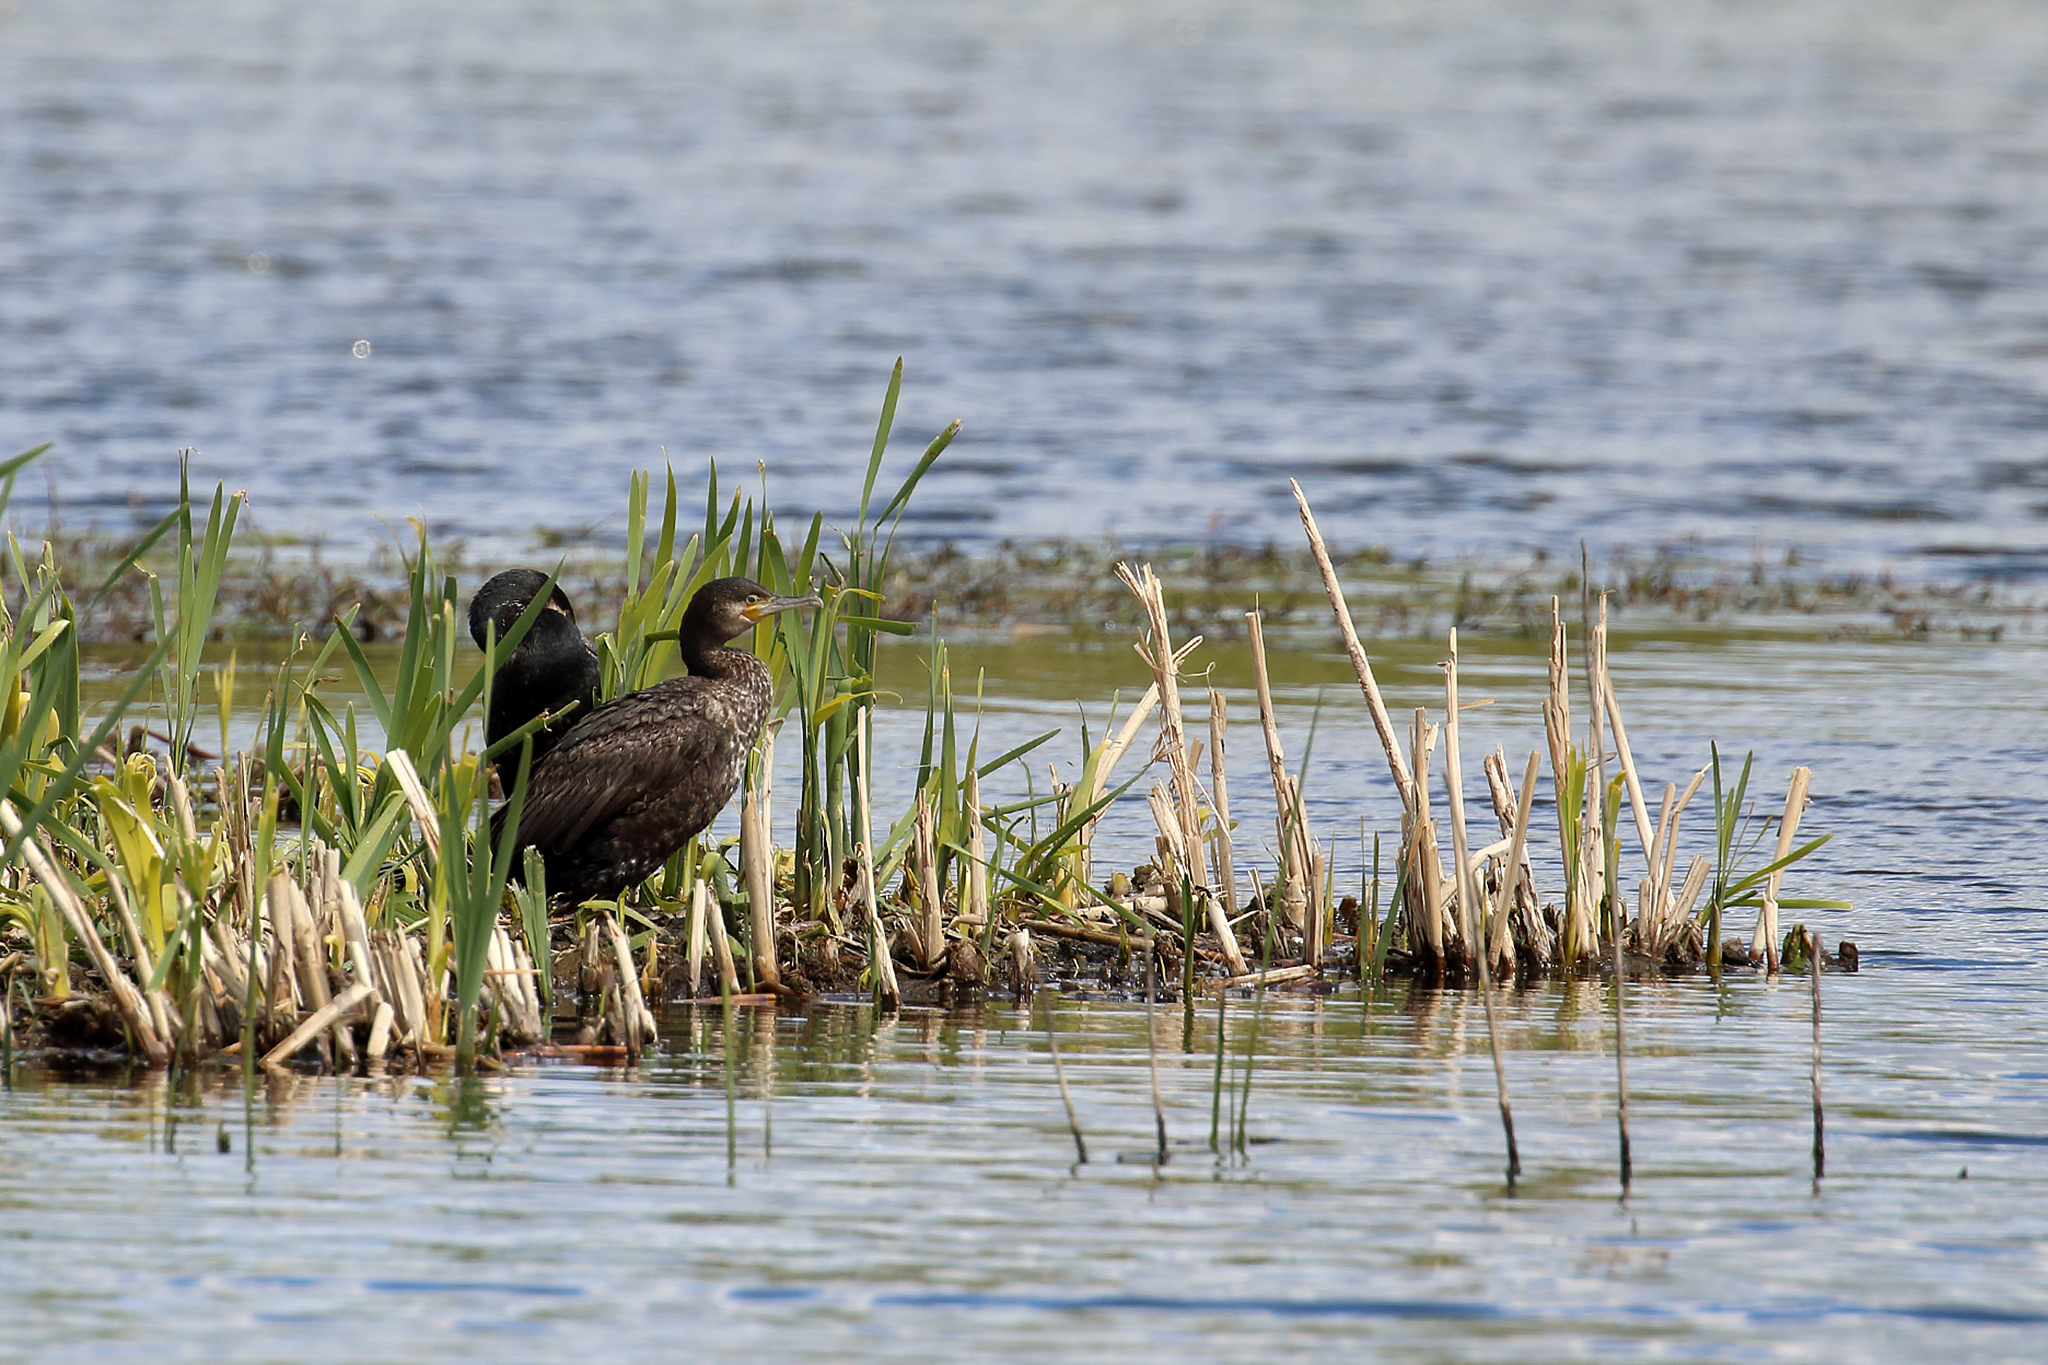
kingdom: Animalia
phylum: Chordata
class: Aves
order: Suliformes
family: Phalacrocoracidae
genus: Phalacrocorax
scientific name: Phalacrocorax carbo
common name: Great cormorant
